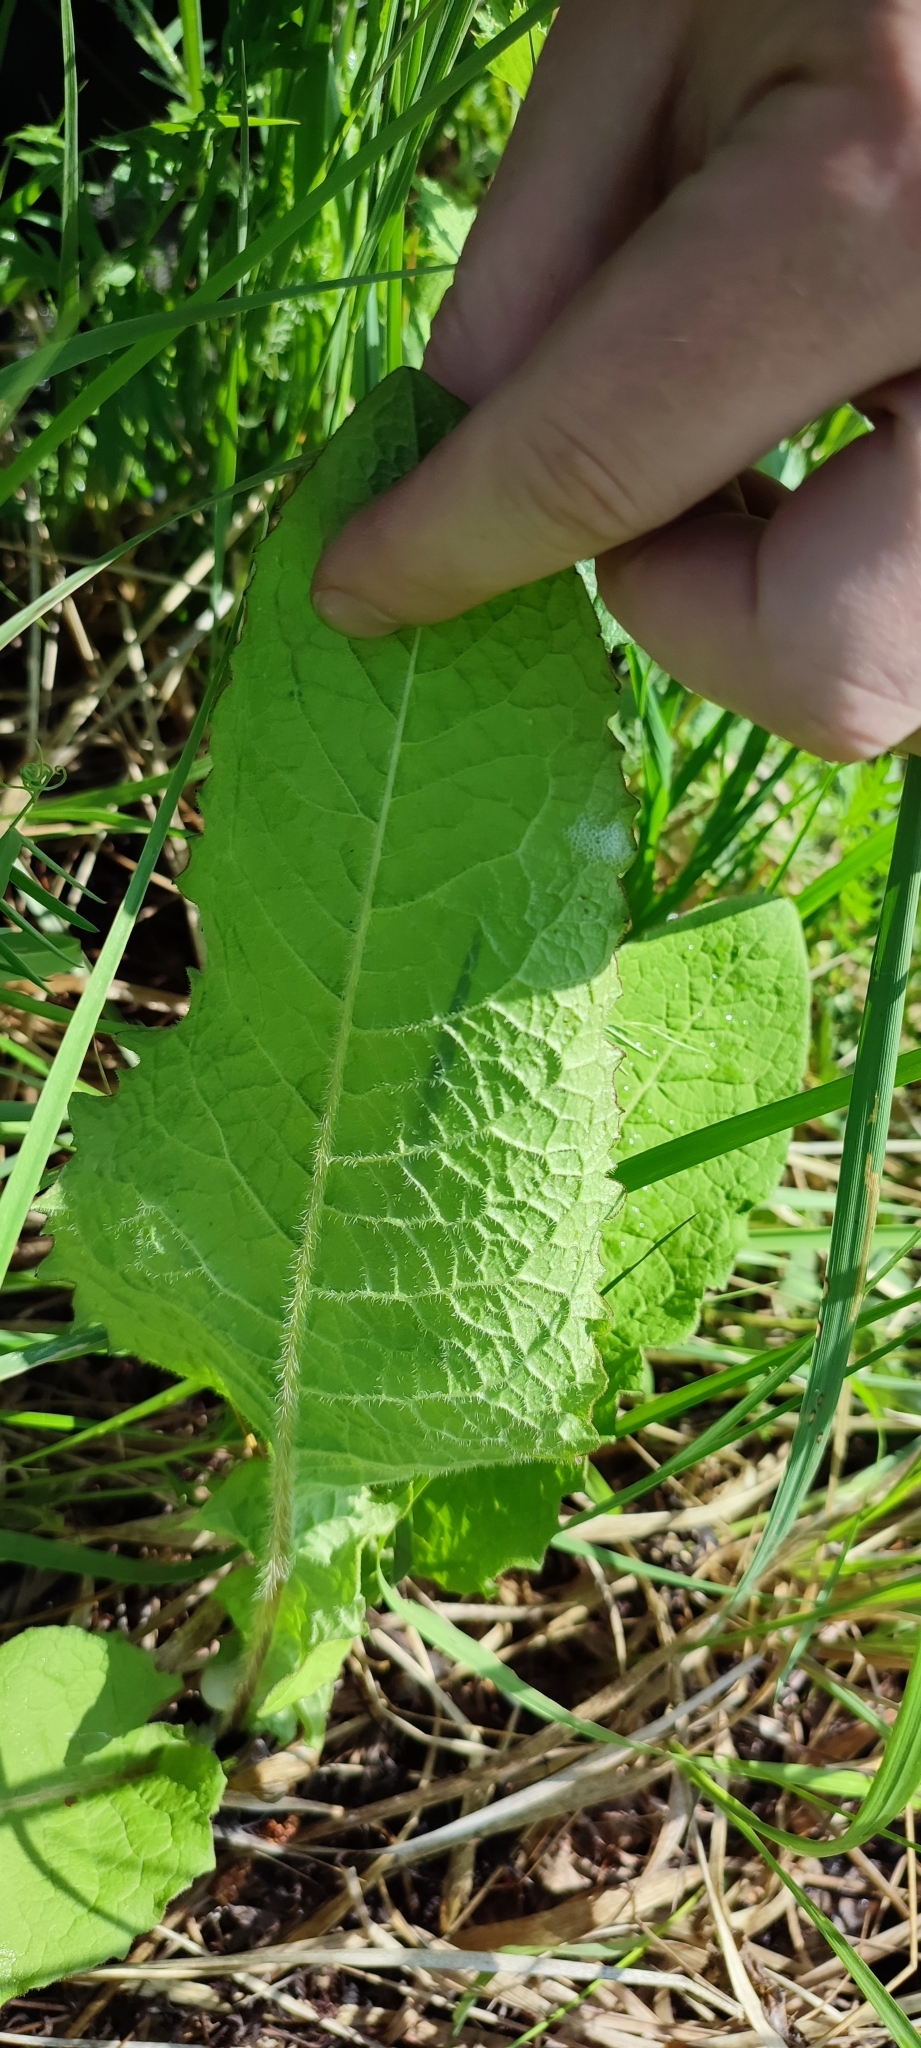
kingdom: Plantae
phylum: Tracheophyta
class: Magnoliopsida
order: Asterales
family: Asteraceae
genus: Crepis
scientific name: Crepis sibirica
